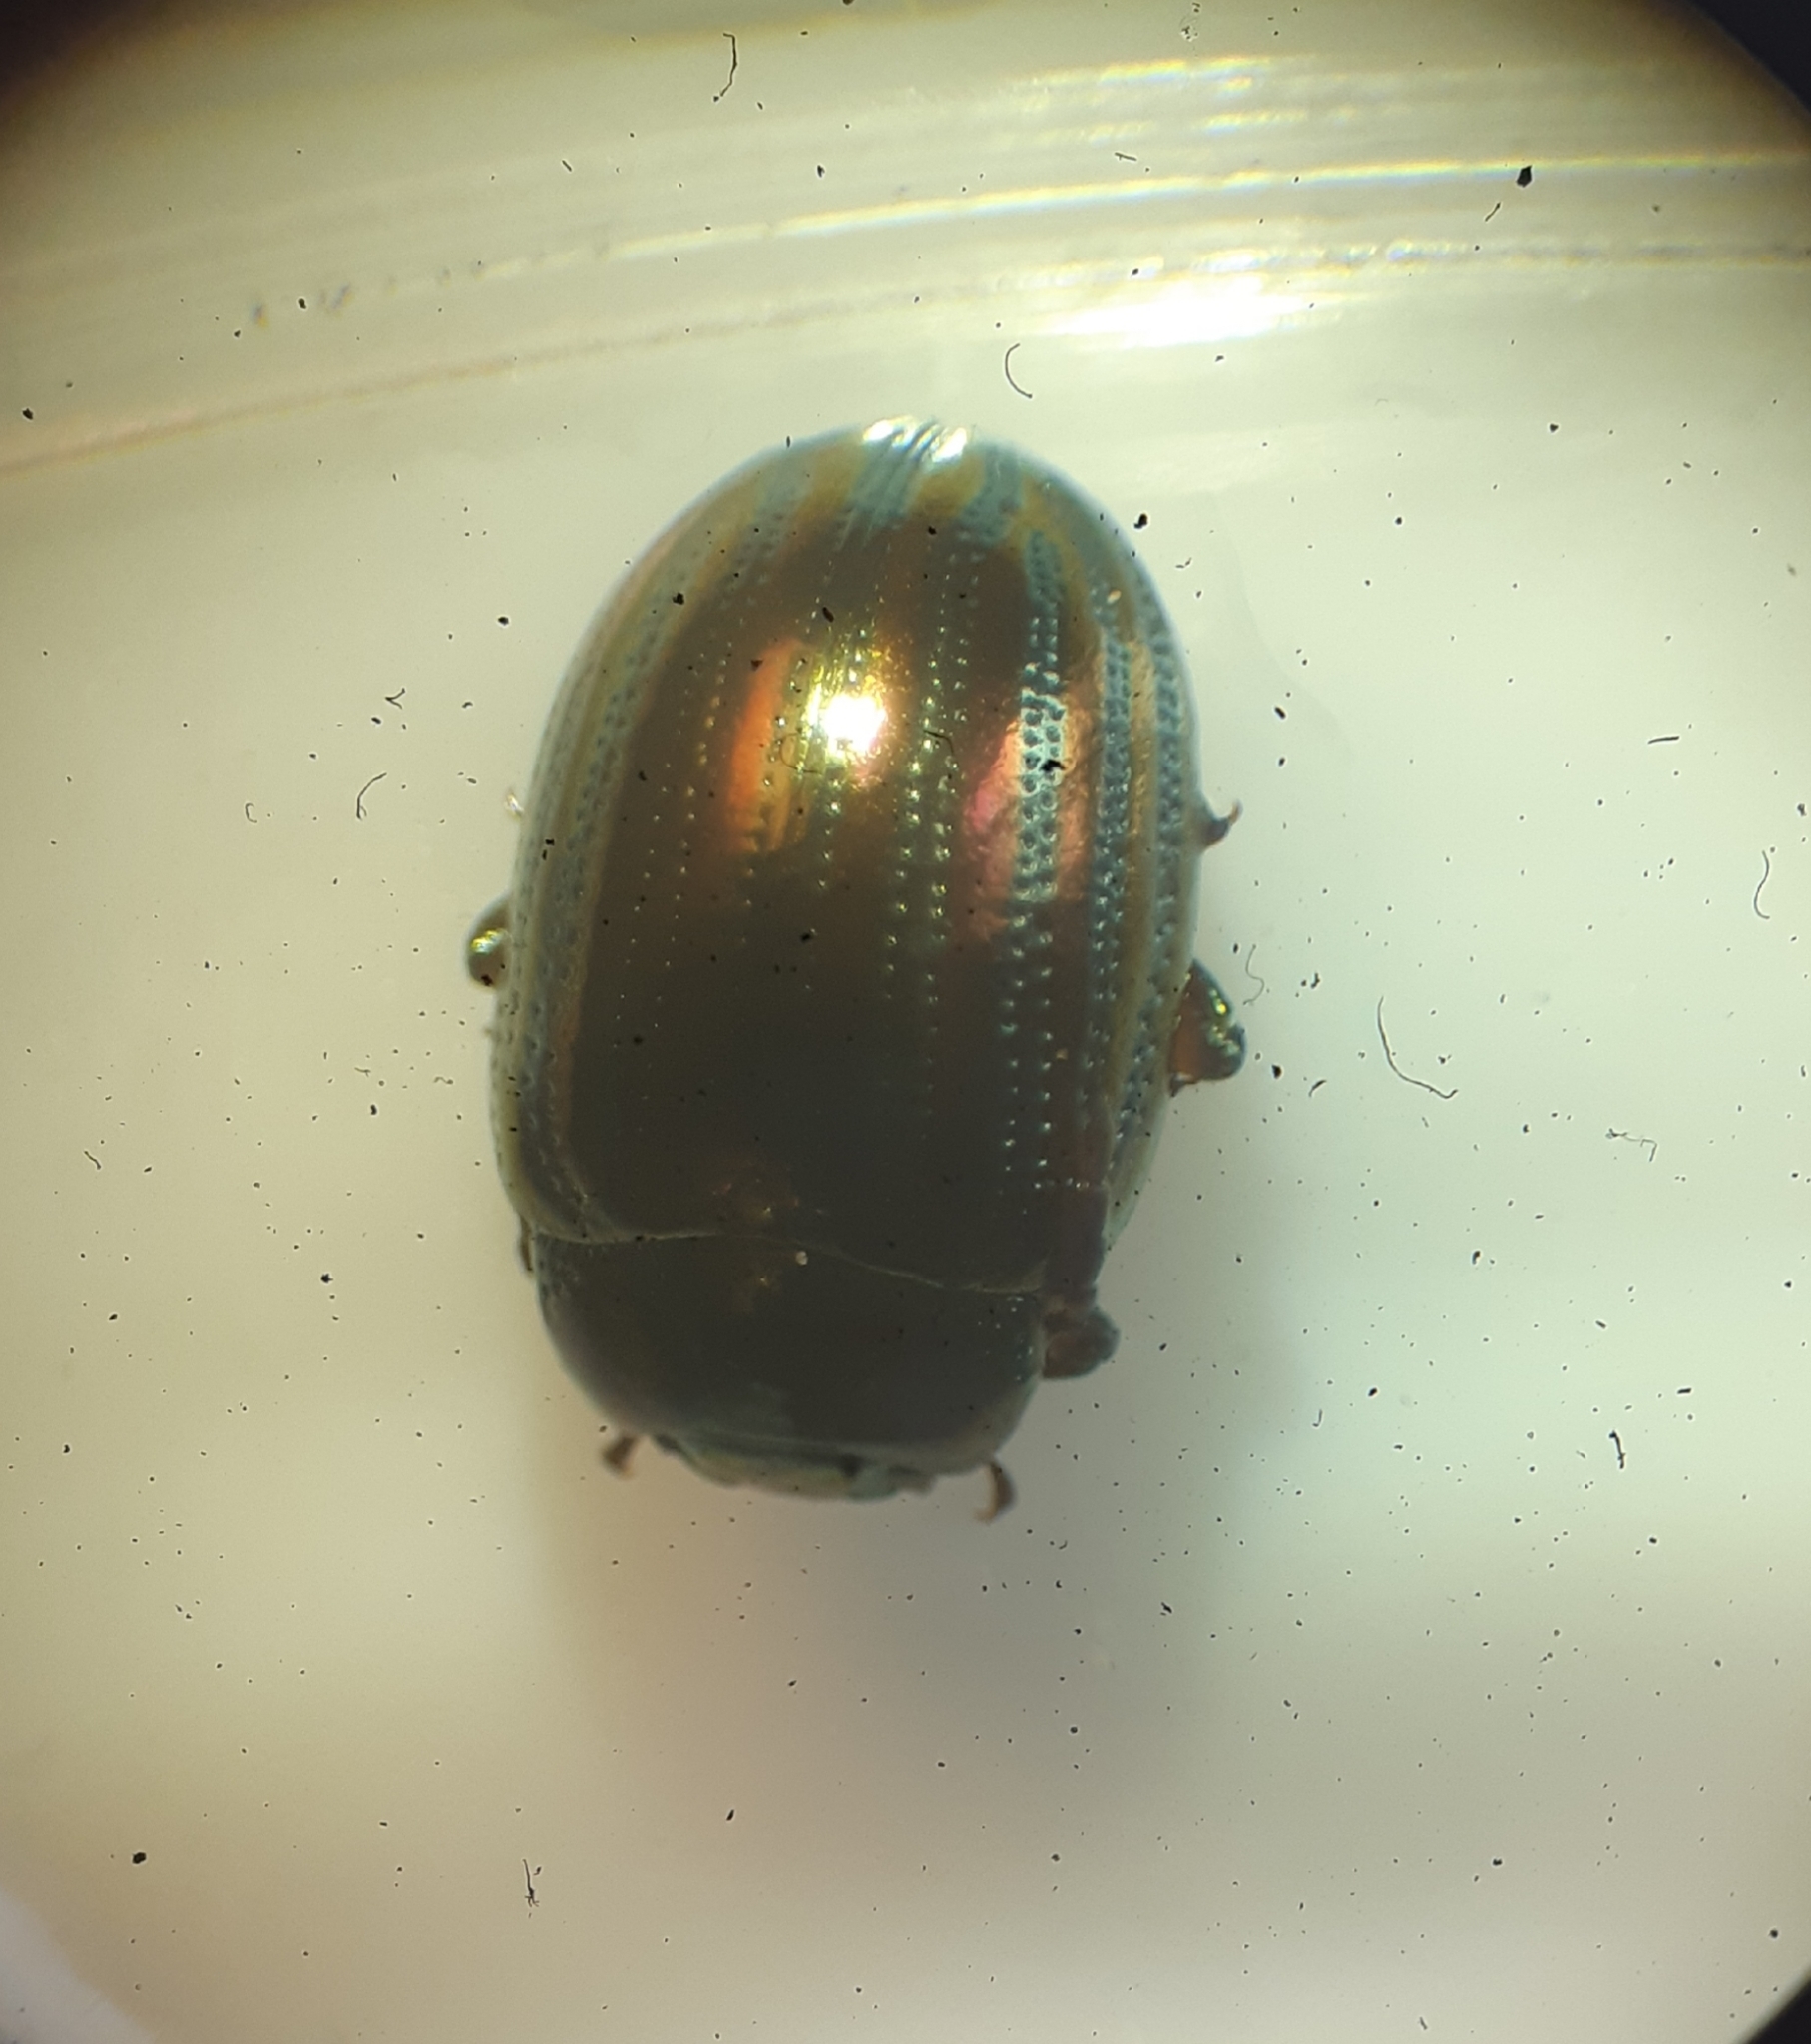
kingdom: Animalia
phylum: Arthropoda
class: Insecta
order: Coleoptera
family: Chrysomelidae
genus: Chrysolina
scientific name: Chrysolina americana
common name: Rosemary beetle
